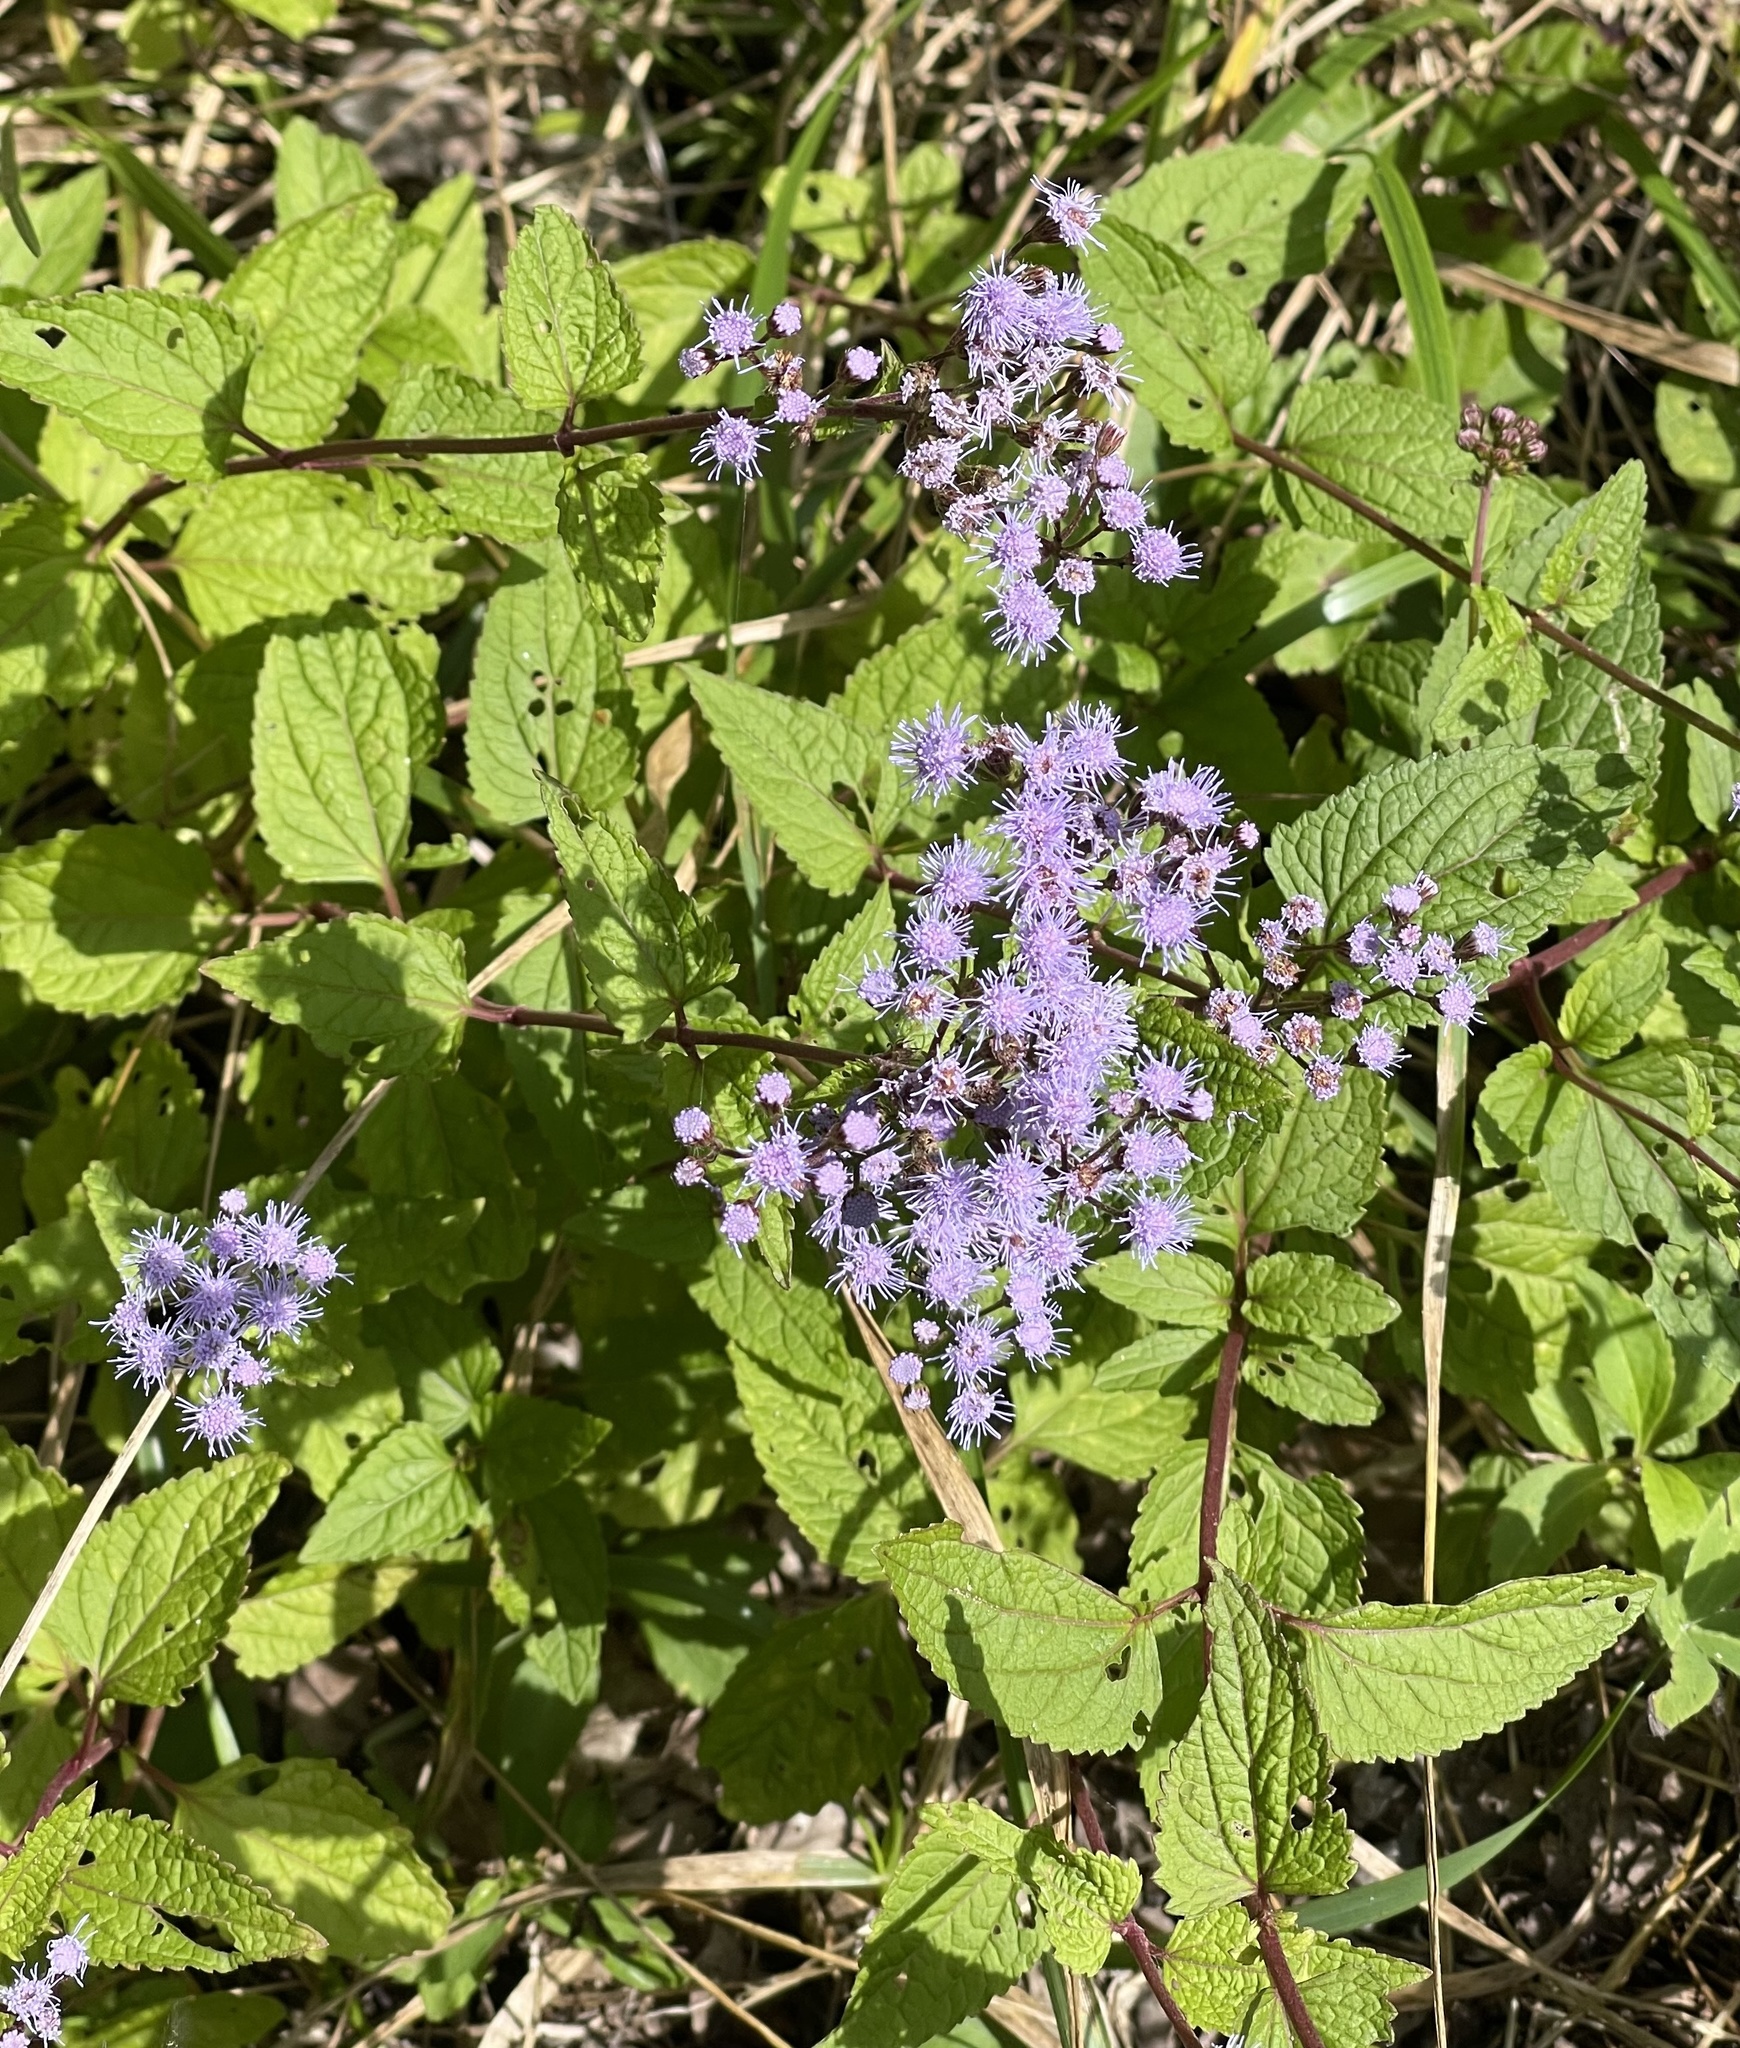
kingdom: Plantae
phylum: Tracheophyta
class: Magnoliopsida
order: Asterales
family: Asteraceae
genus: Conoclinium
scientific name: Conoclinium coelestinum
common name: Blue mistflower
